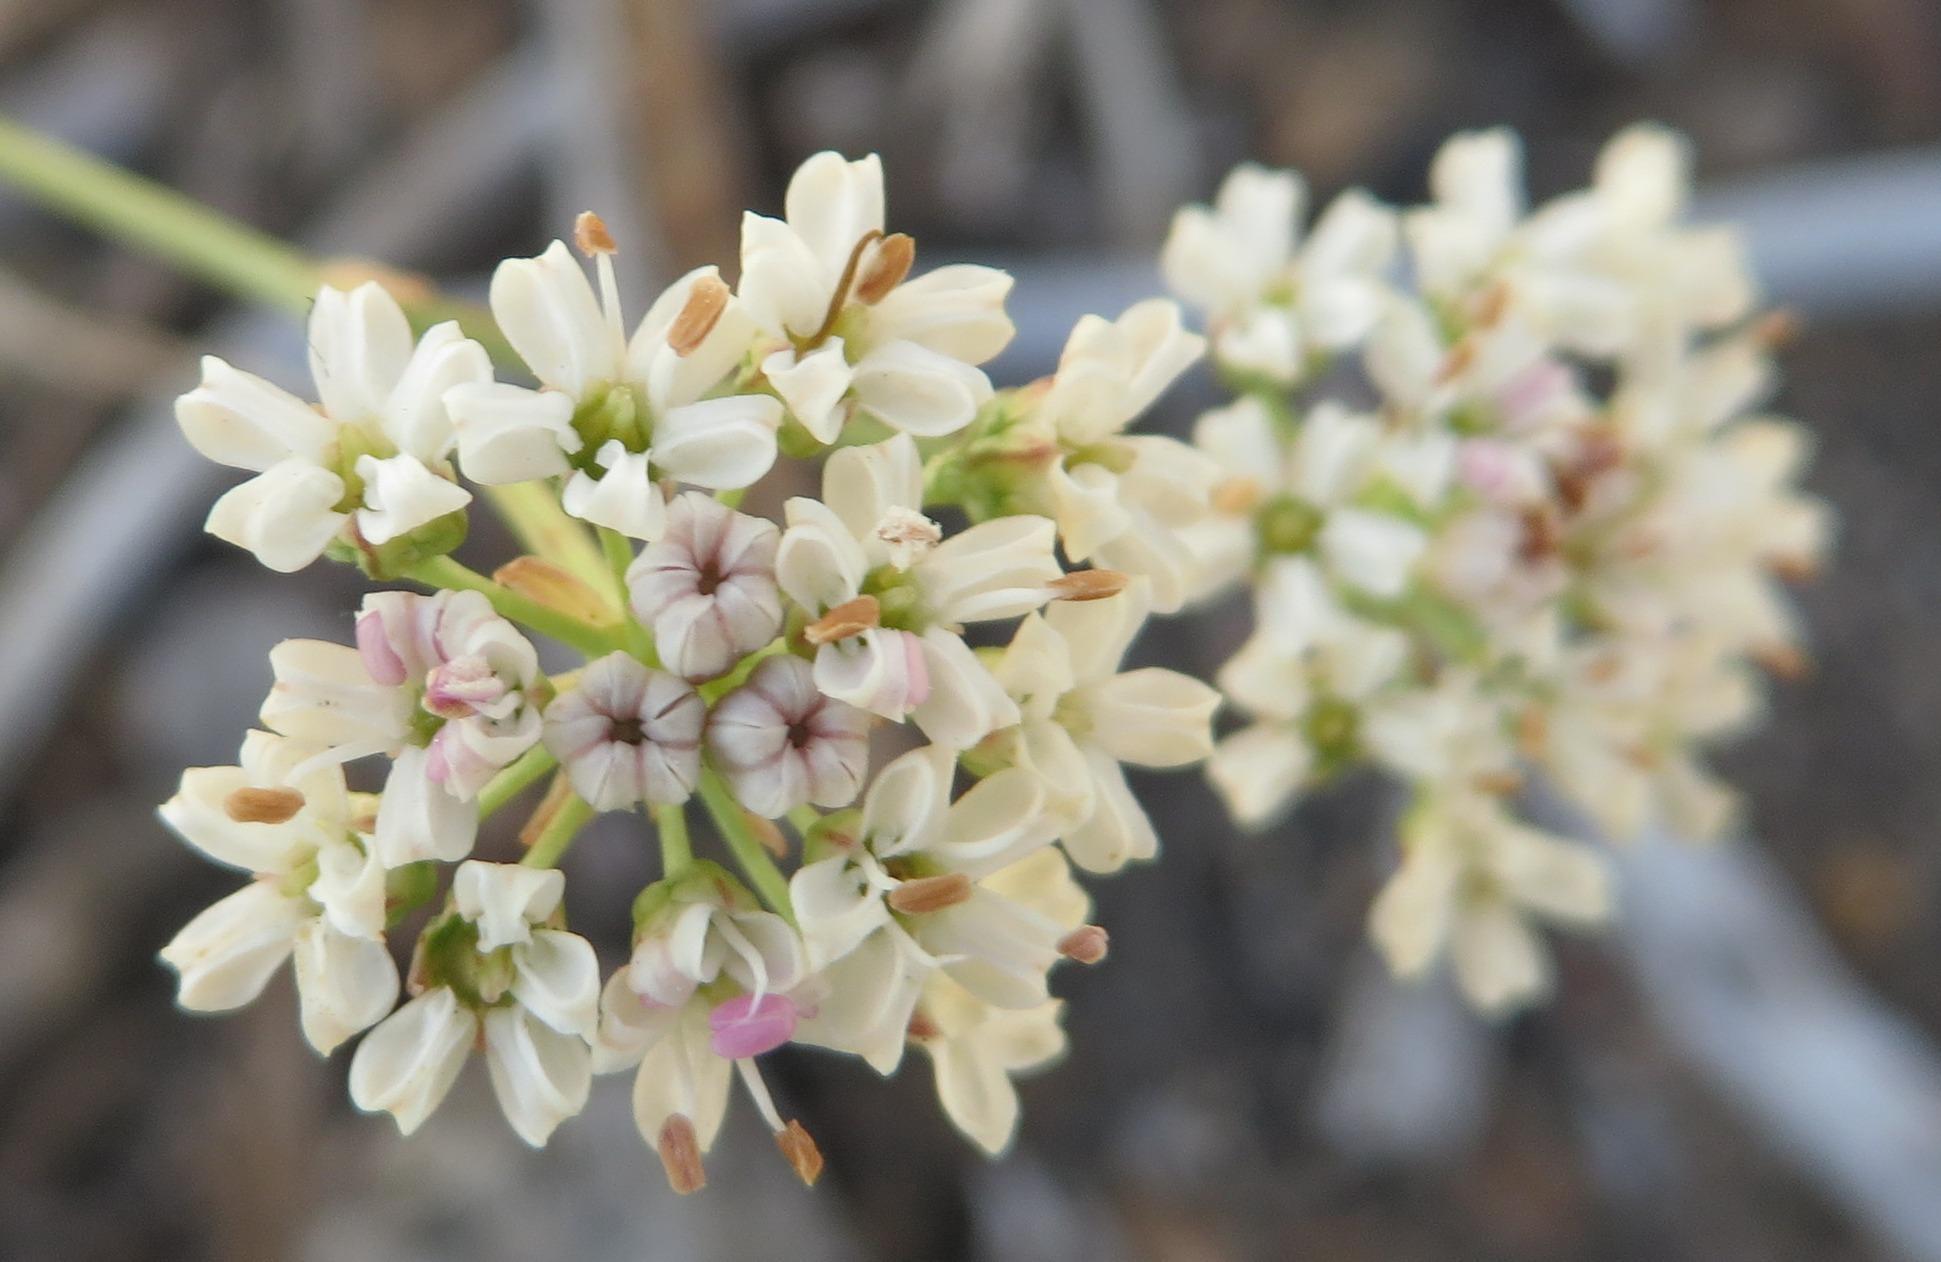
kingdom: Plantae
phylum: Tracheophyta
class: Magnoliopsida
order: Apiales
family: Apiaceae
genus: Itasina
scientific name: Itasina filifolia
